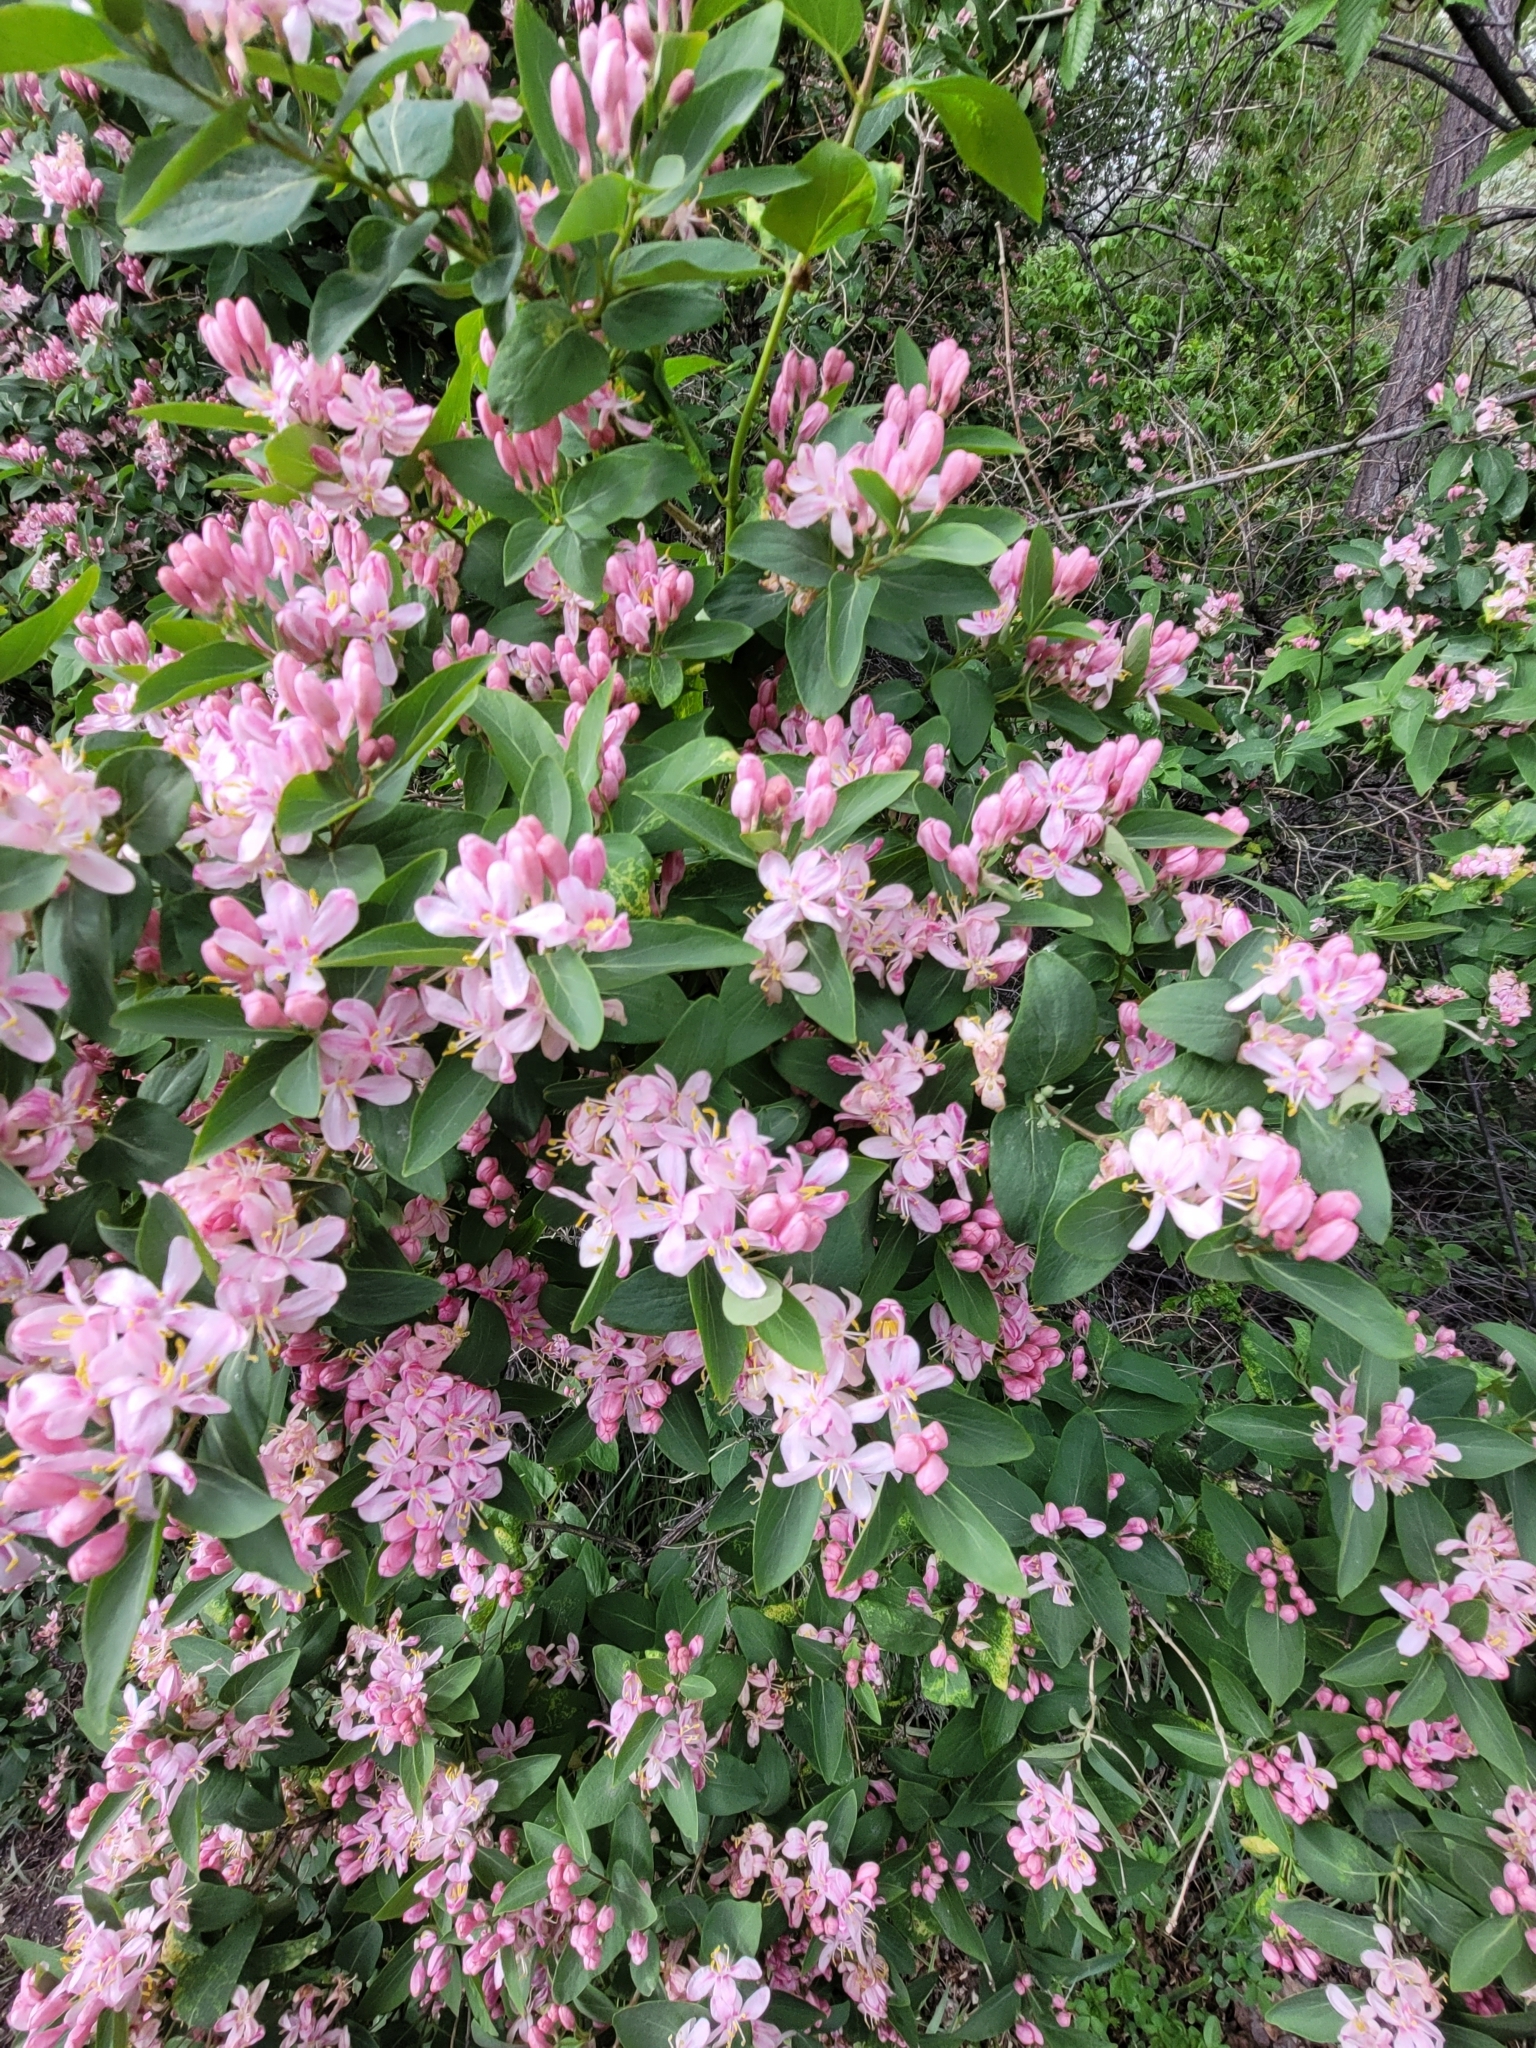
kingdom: Plantae
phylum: Tracheophyta
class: Magnoliopsida
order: Dipsacales
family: Caprifoliaceae
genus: Lonicera
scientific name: Lonicera tatarica
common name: Tatarian honeysuckle
